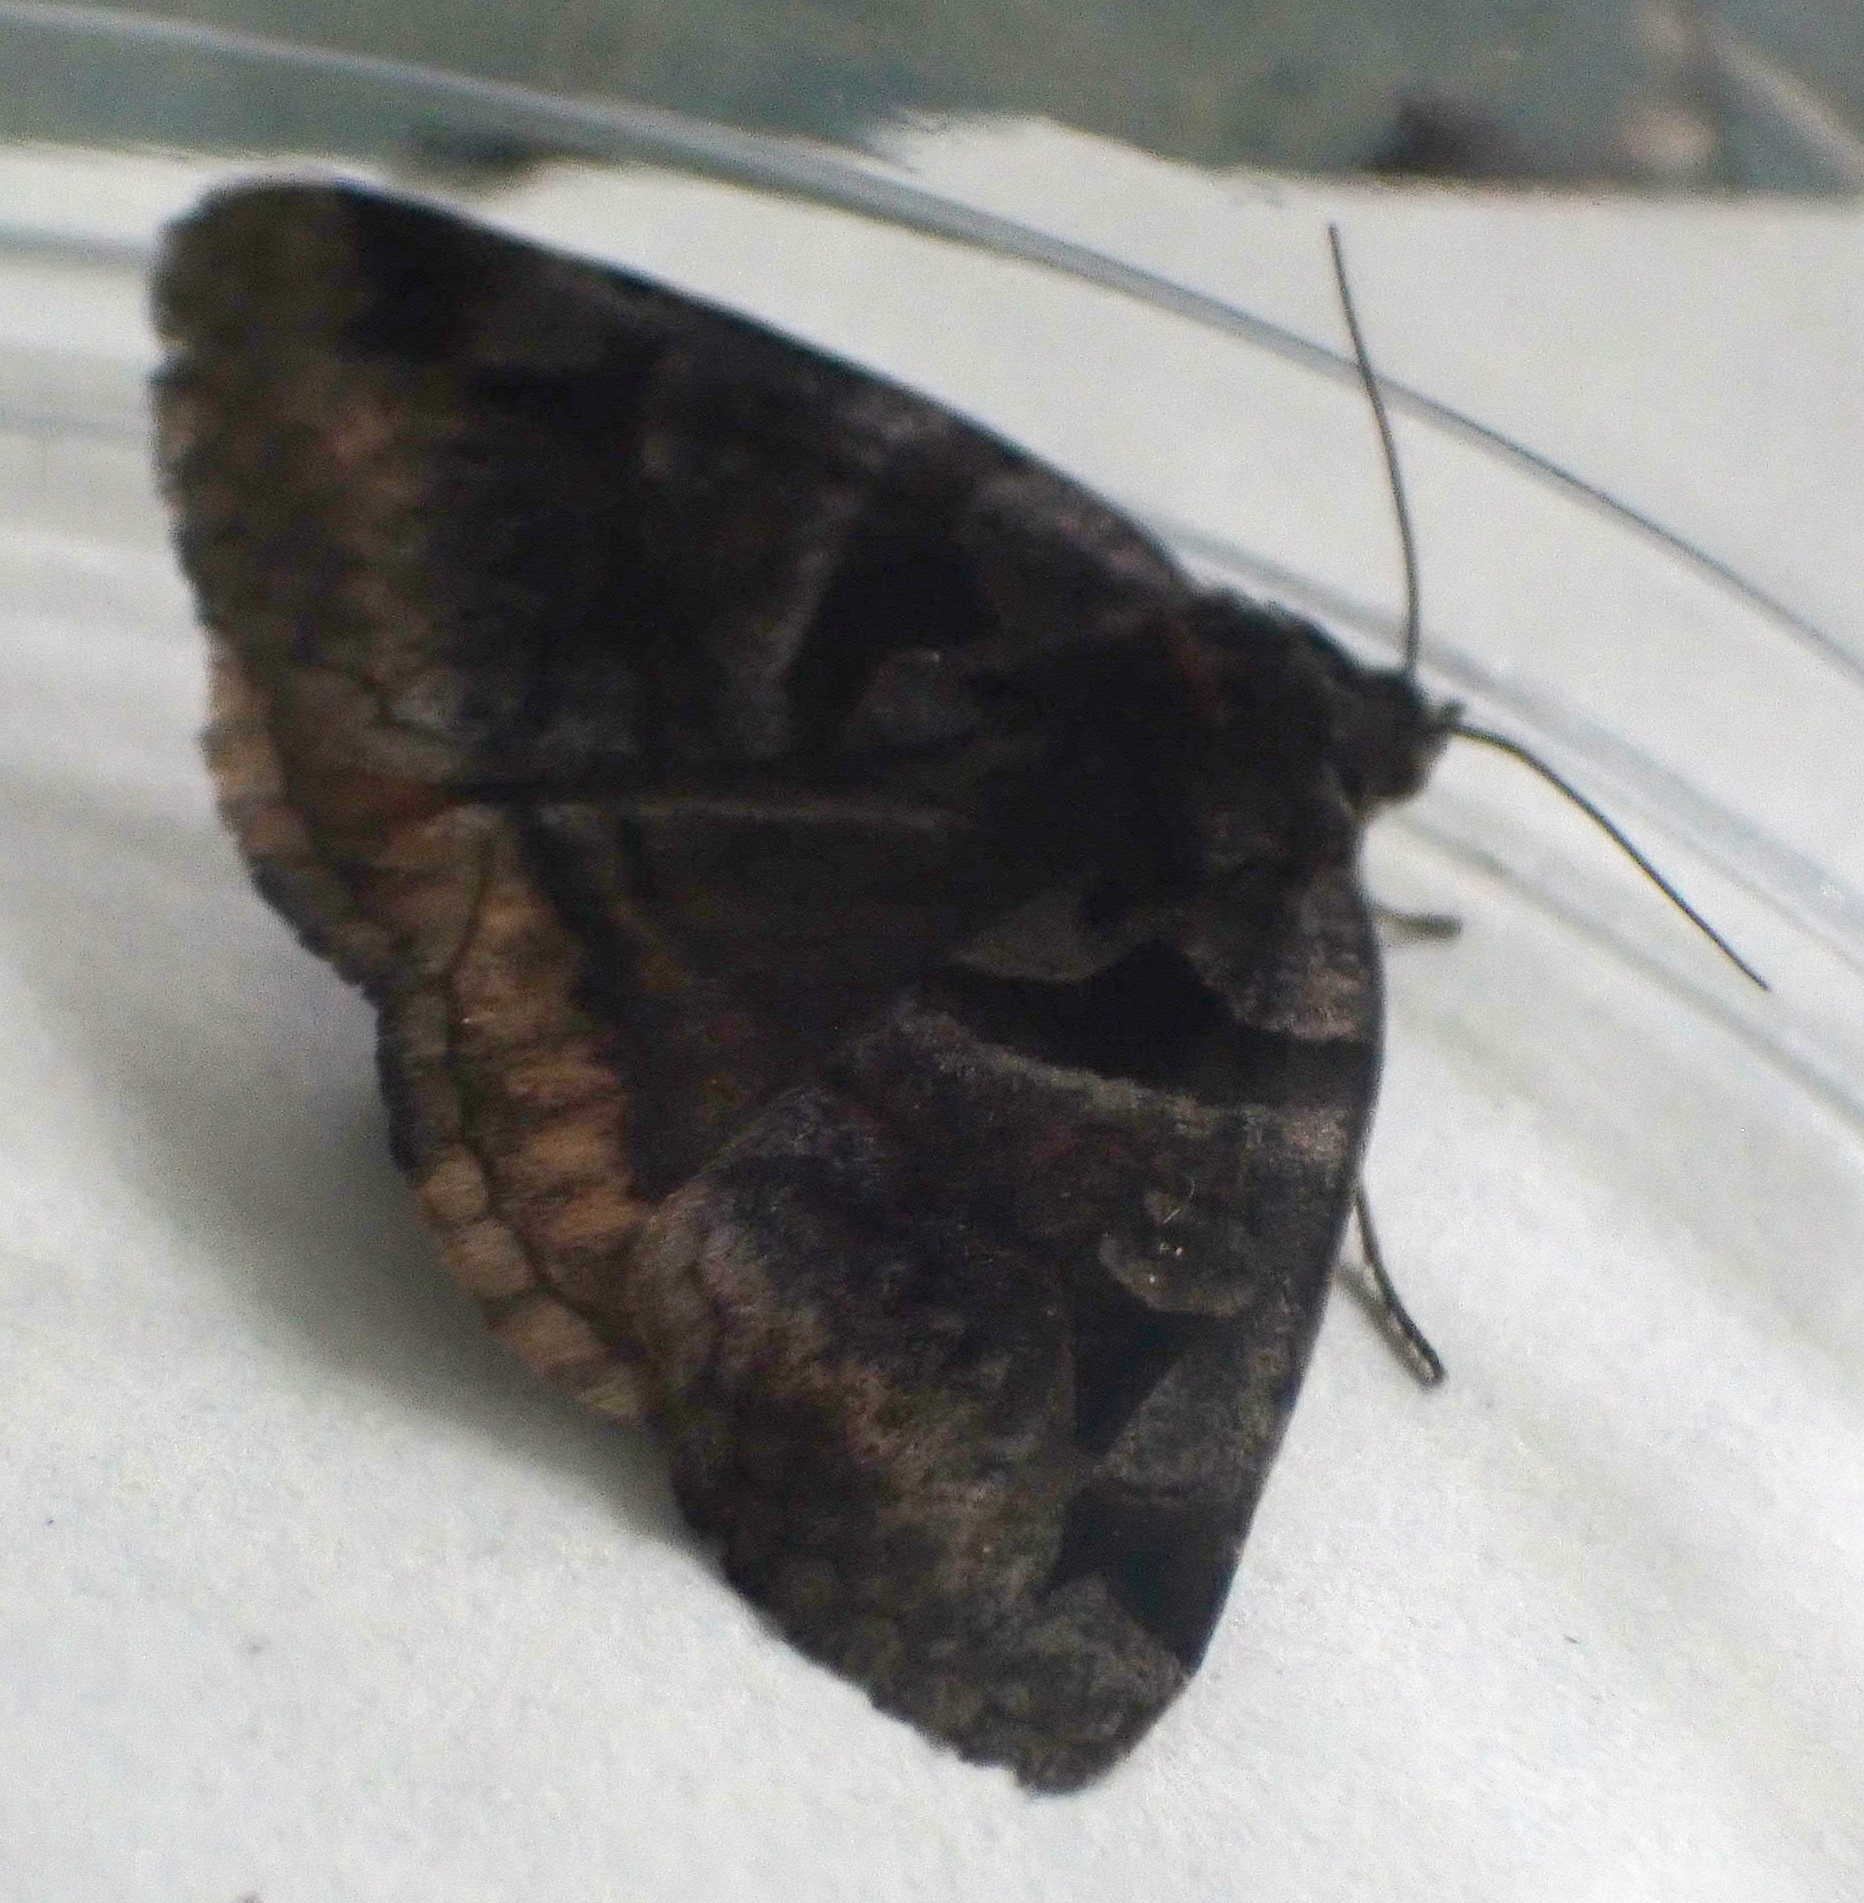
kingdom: Animalia
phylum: Arthropoda
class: Insecta
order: Lepidoptera
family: Erebidae
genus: Euclidia
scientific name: Euclidia cuspidea
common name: Toothed somberwing
